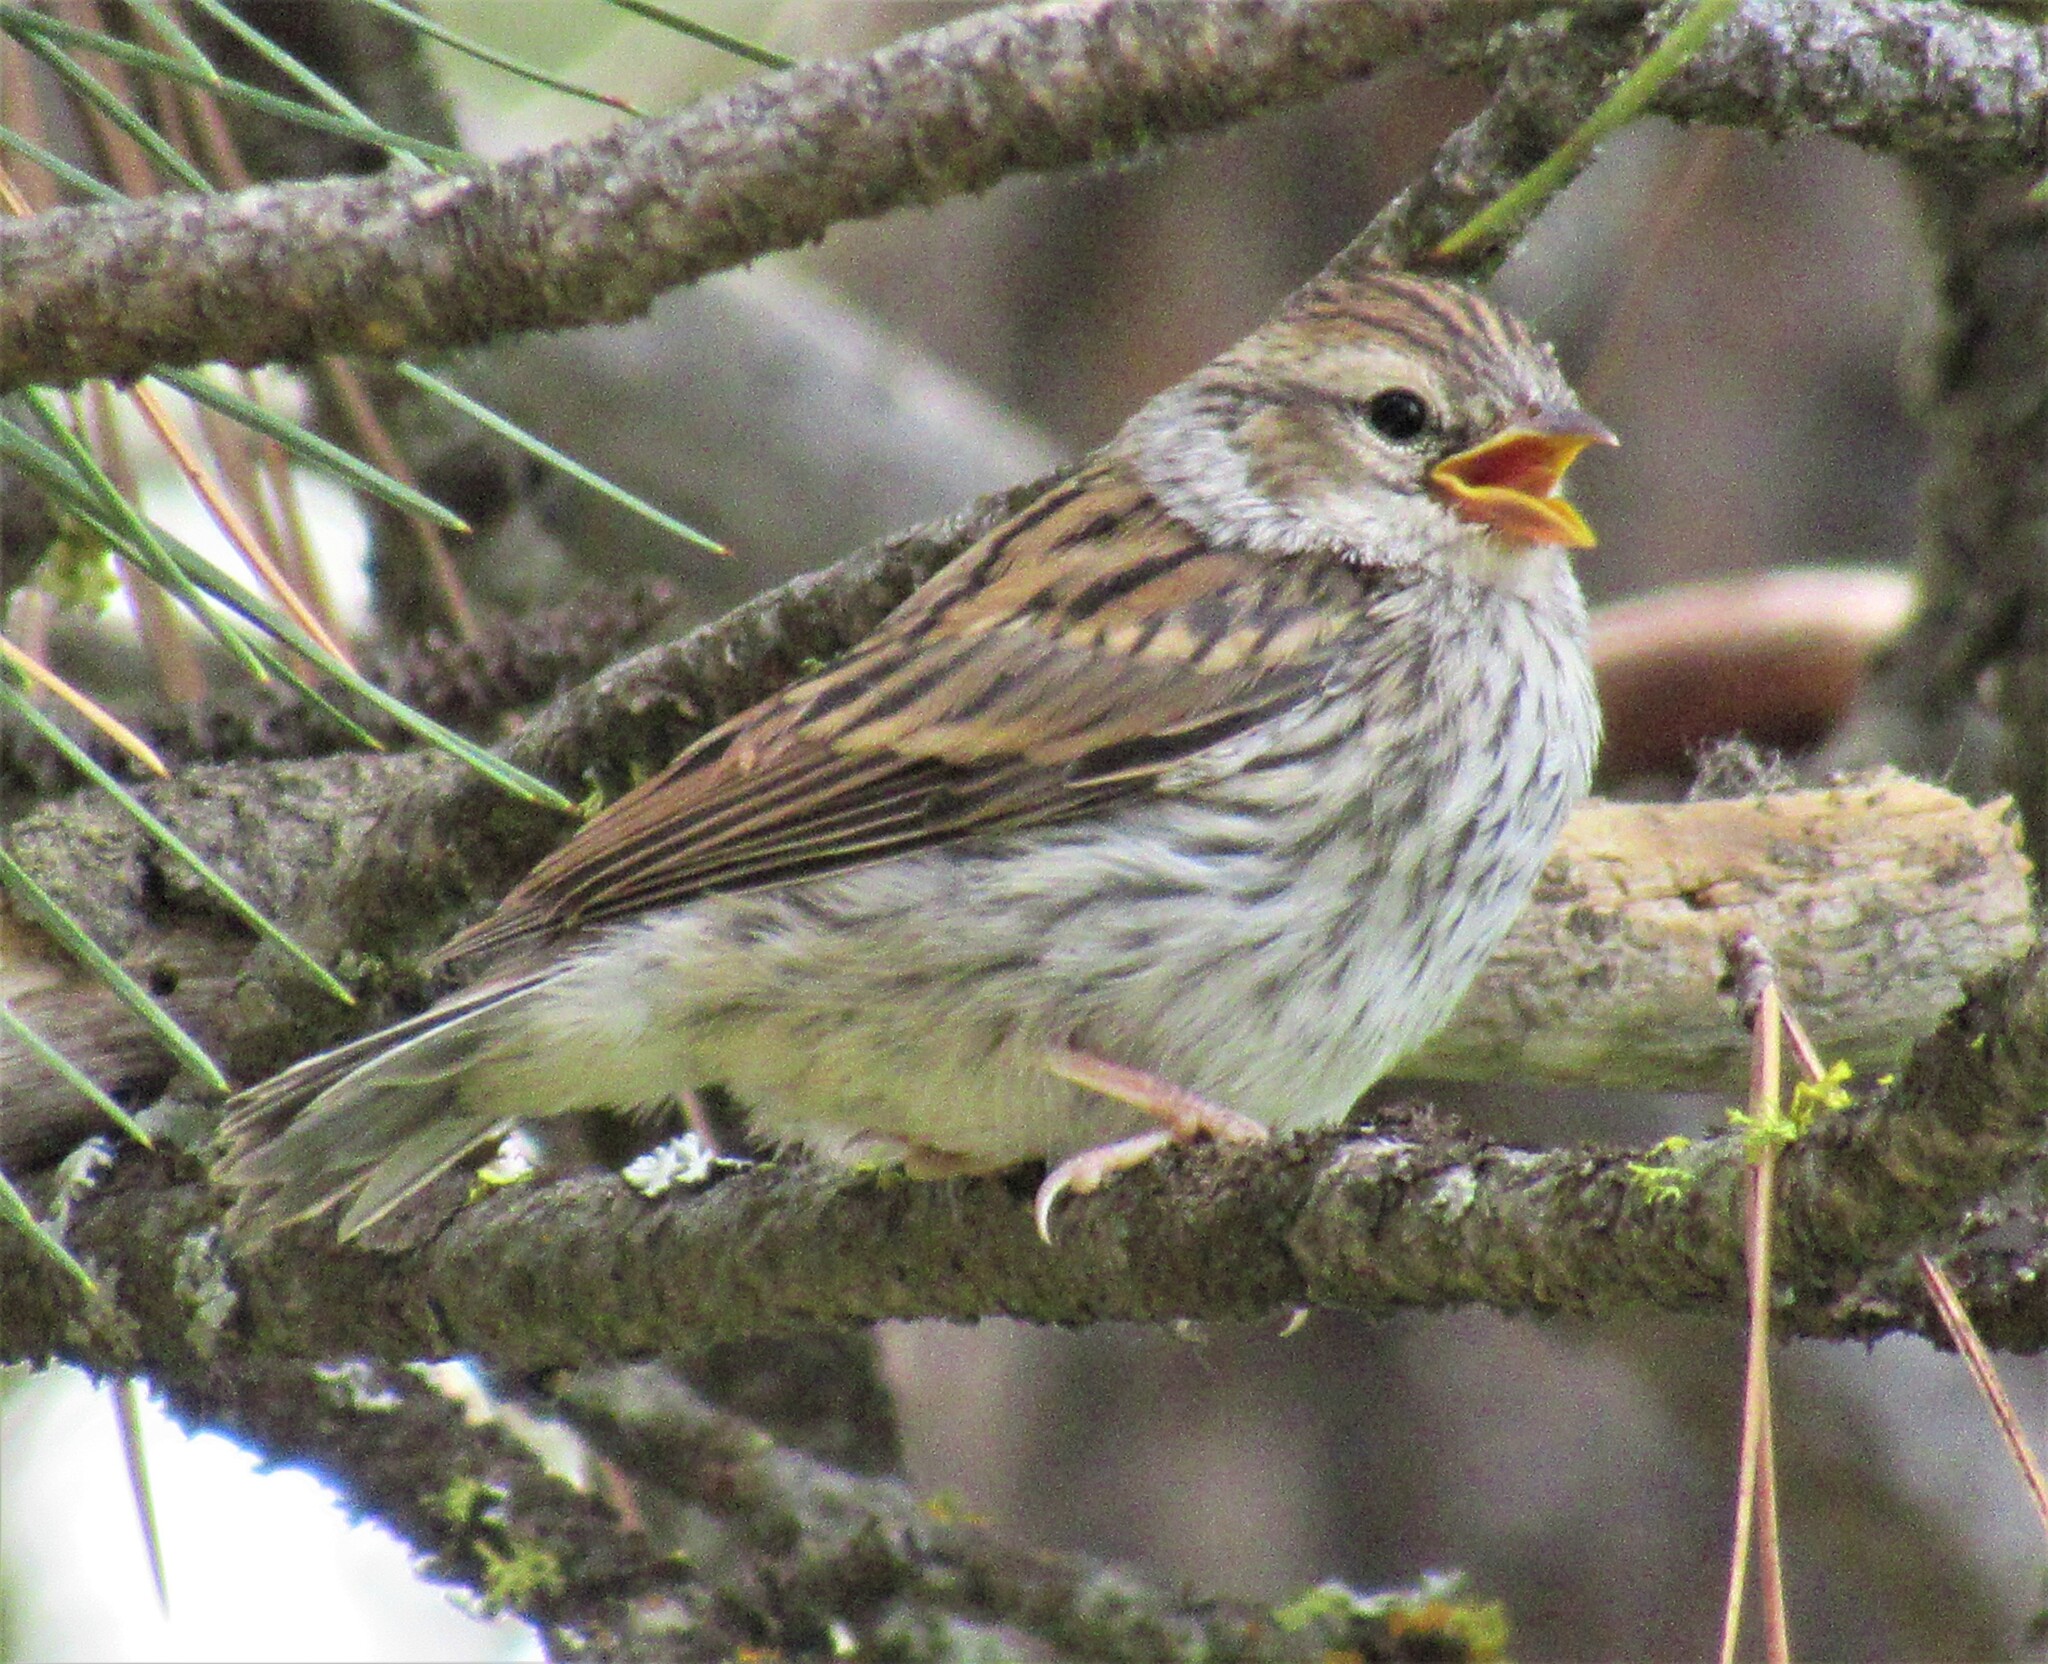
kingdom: Animalia
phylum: Chordata
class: Aves
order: Passeriformes
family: Passerellidae
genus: Spizella
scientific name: Spizella breweri
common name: Brewer's sparrow
